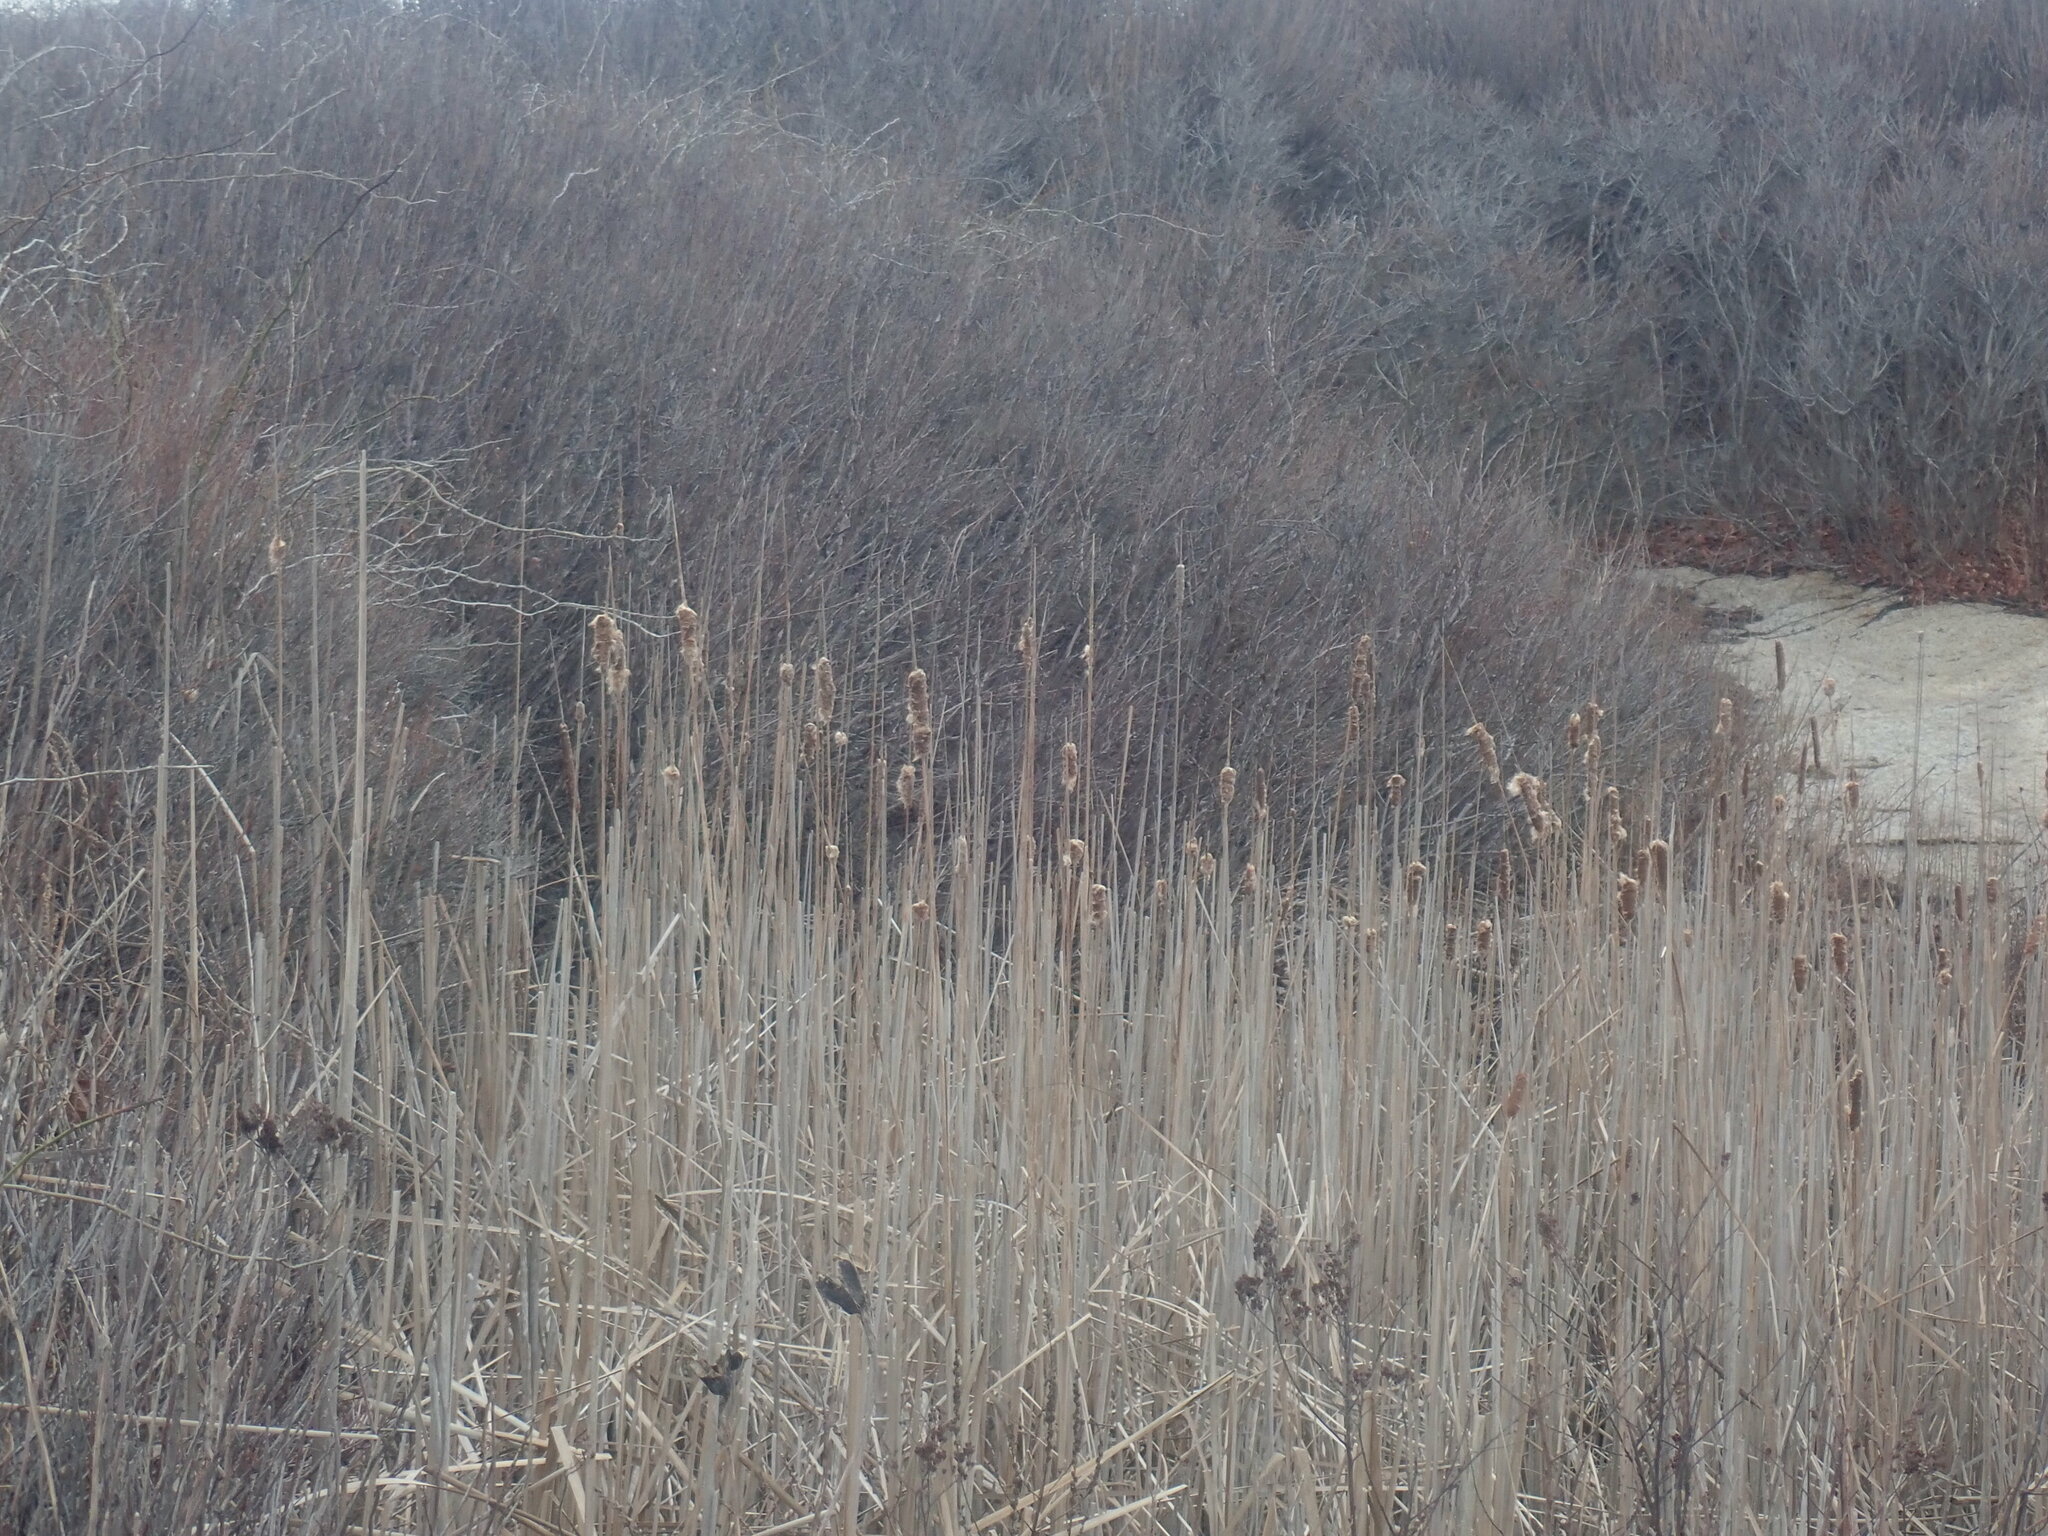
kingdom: Plantae
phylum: Tracheophyta
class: Liliopsida
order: Poales
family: Typhaceae
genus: Typha
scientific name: Typha
